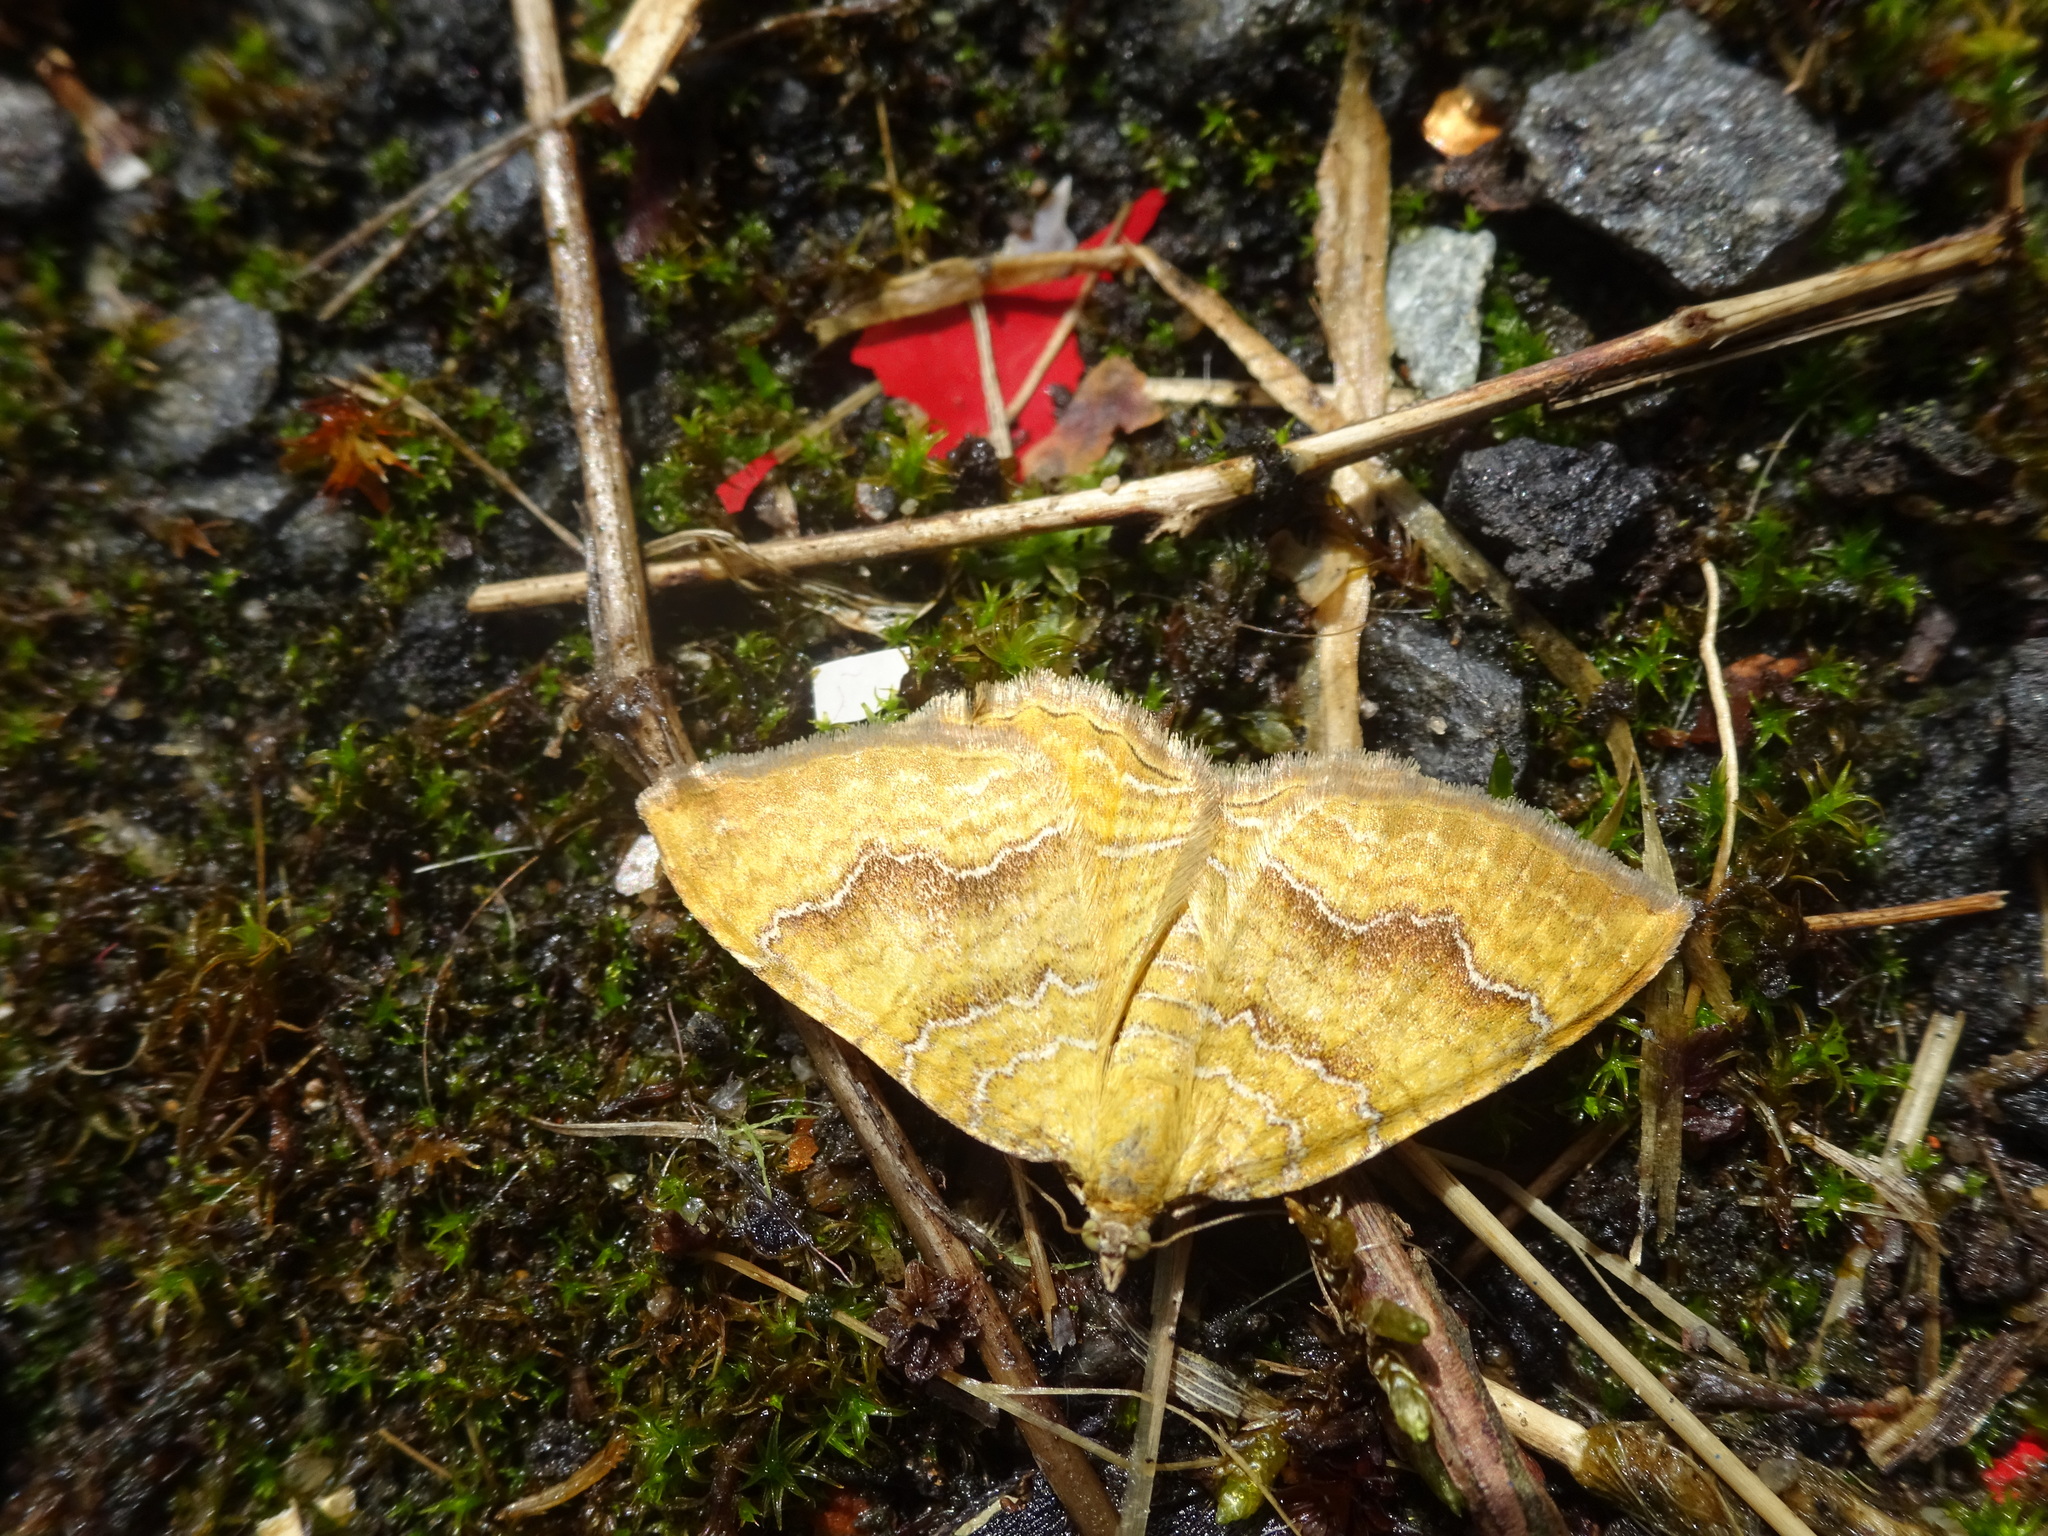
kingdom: Animalia
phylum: Arthropoda
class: Insecta
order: Lepidoptera
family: Geometridae
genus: Camptogramma
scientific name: Camptogramma bilineata
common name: Yellow shell
